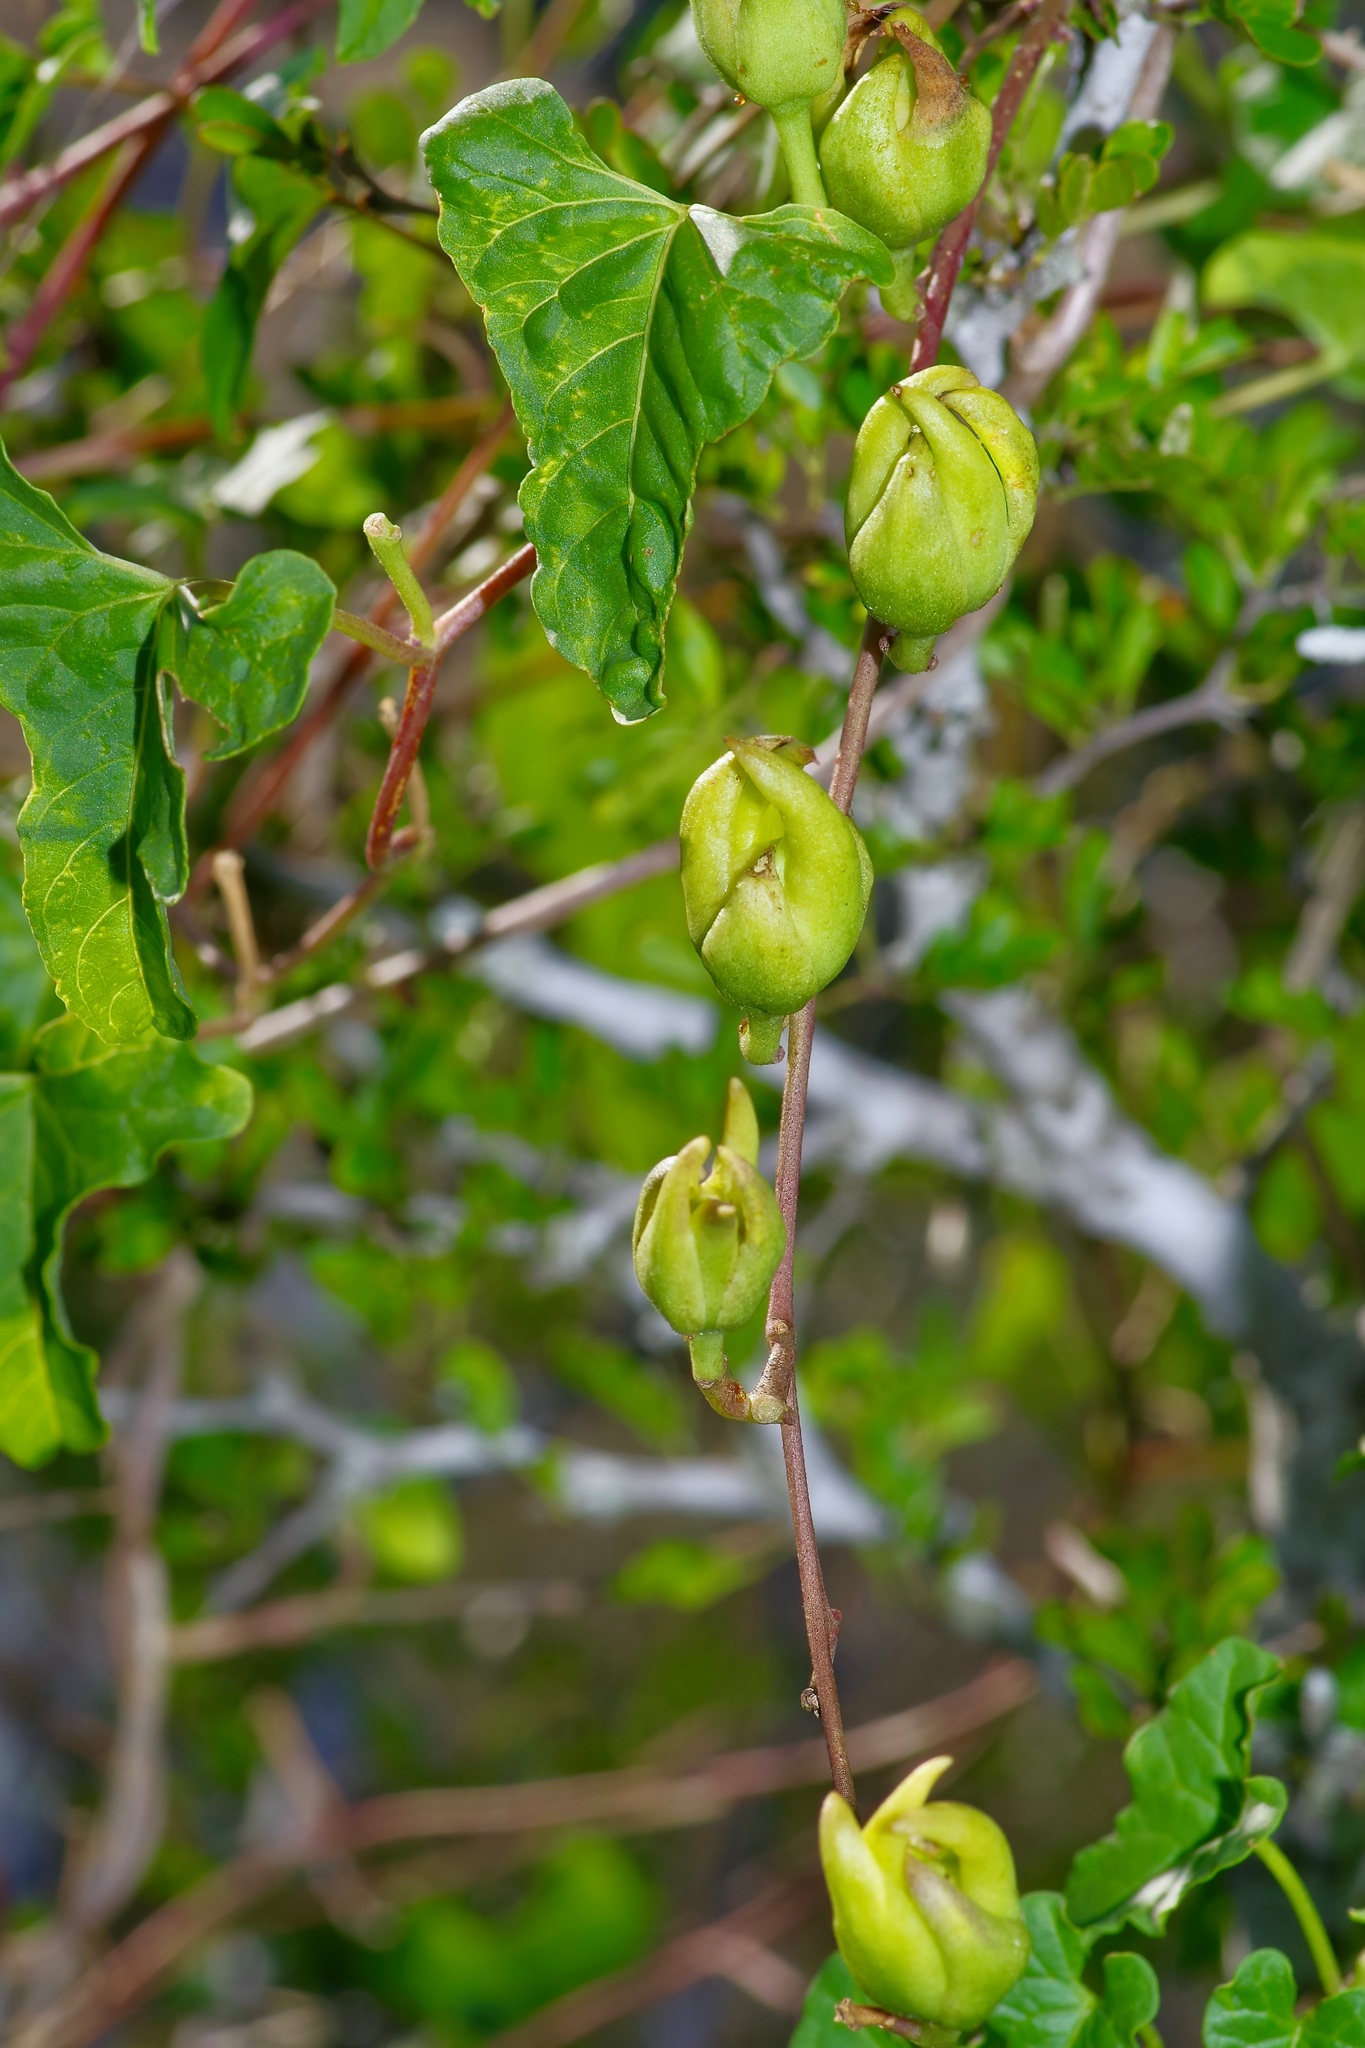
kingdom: Plantae
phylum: Tracheophyta
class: Magnoliopsida
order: Solanales
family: Convolvulaceae
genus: Ipomoea
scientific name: Ipomoea rupicola
